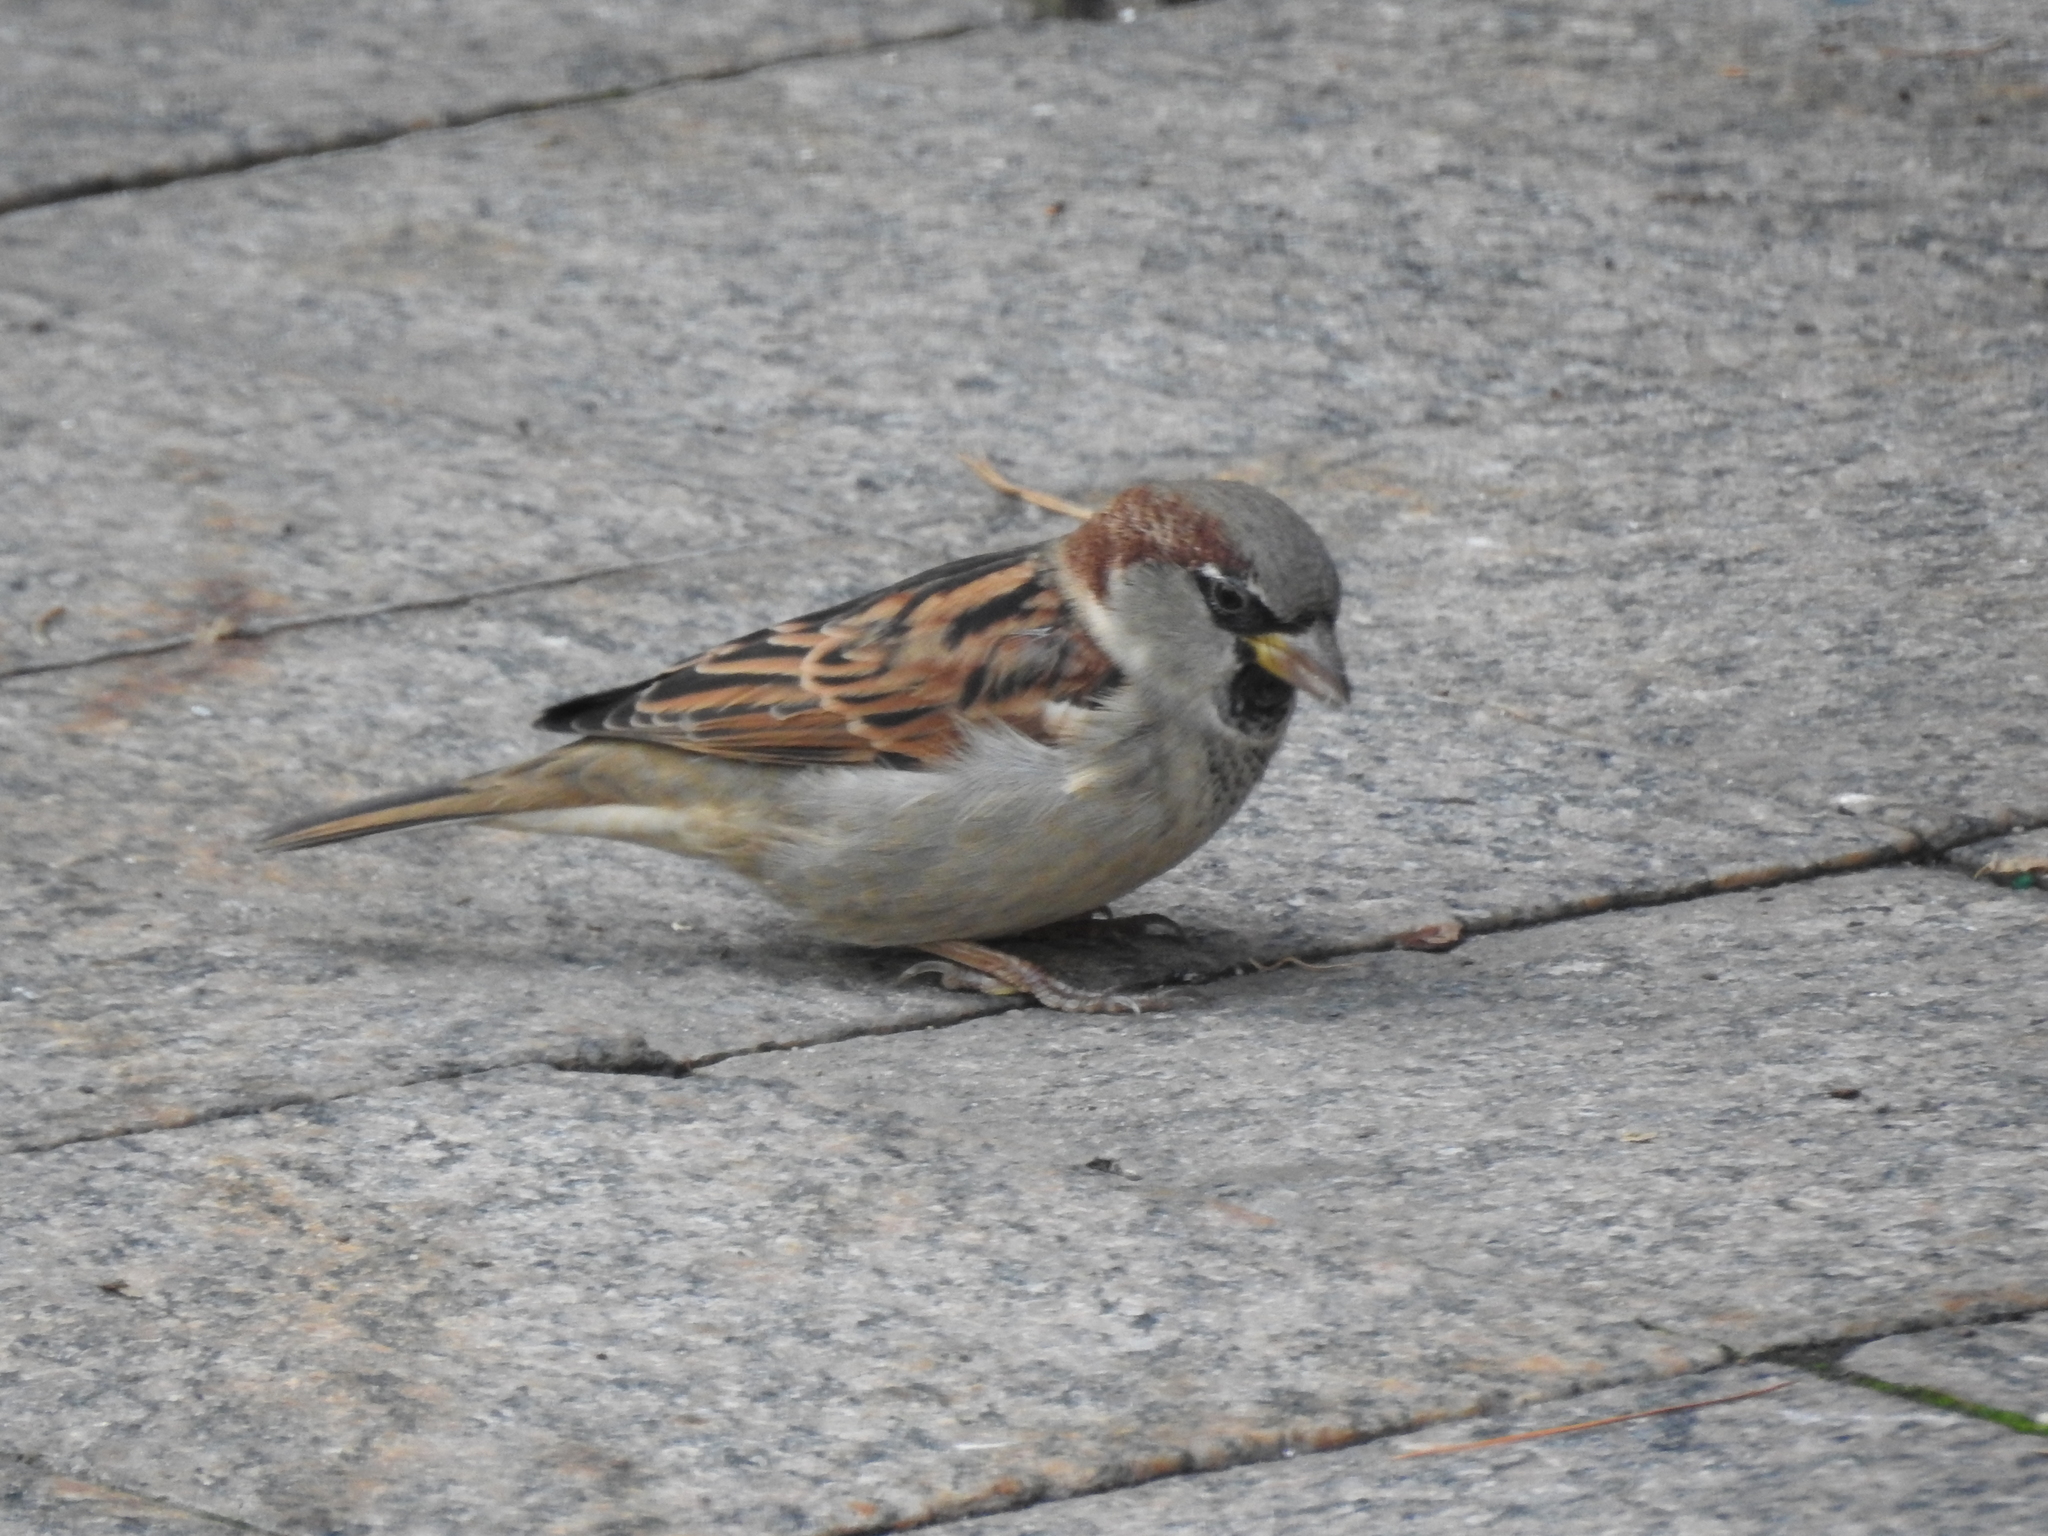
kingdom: Animalia
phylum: Chordata
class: Aves
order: Passeriformes
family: Passeridae
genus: Passer
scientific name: Passer domesticus
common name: House sparrow
